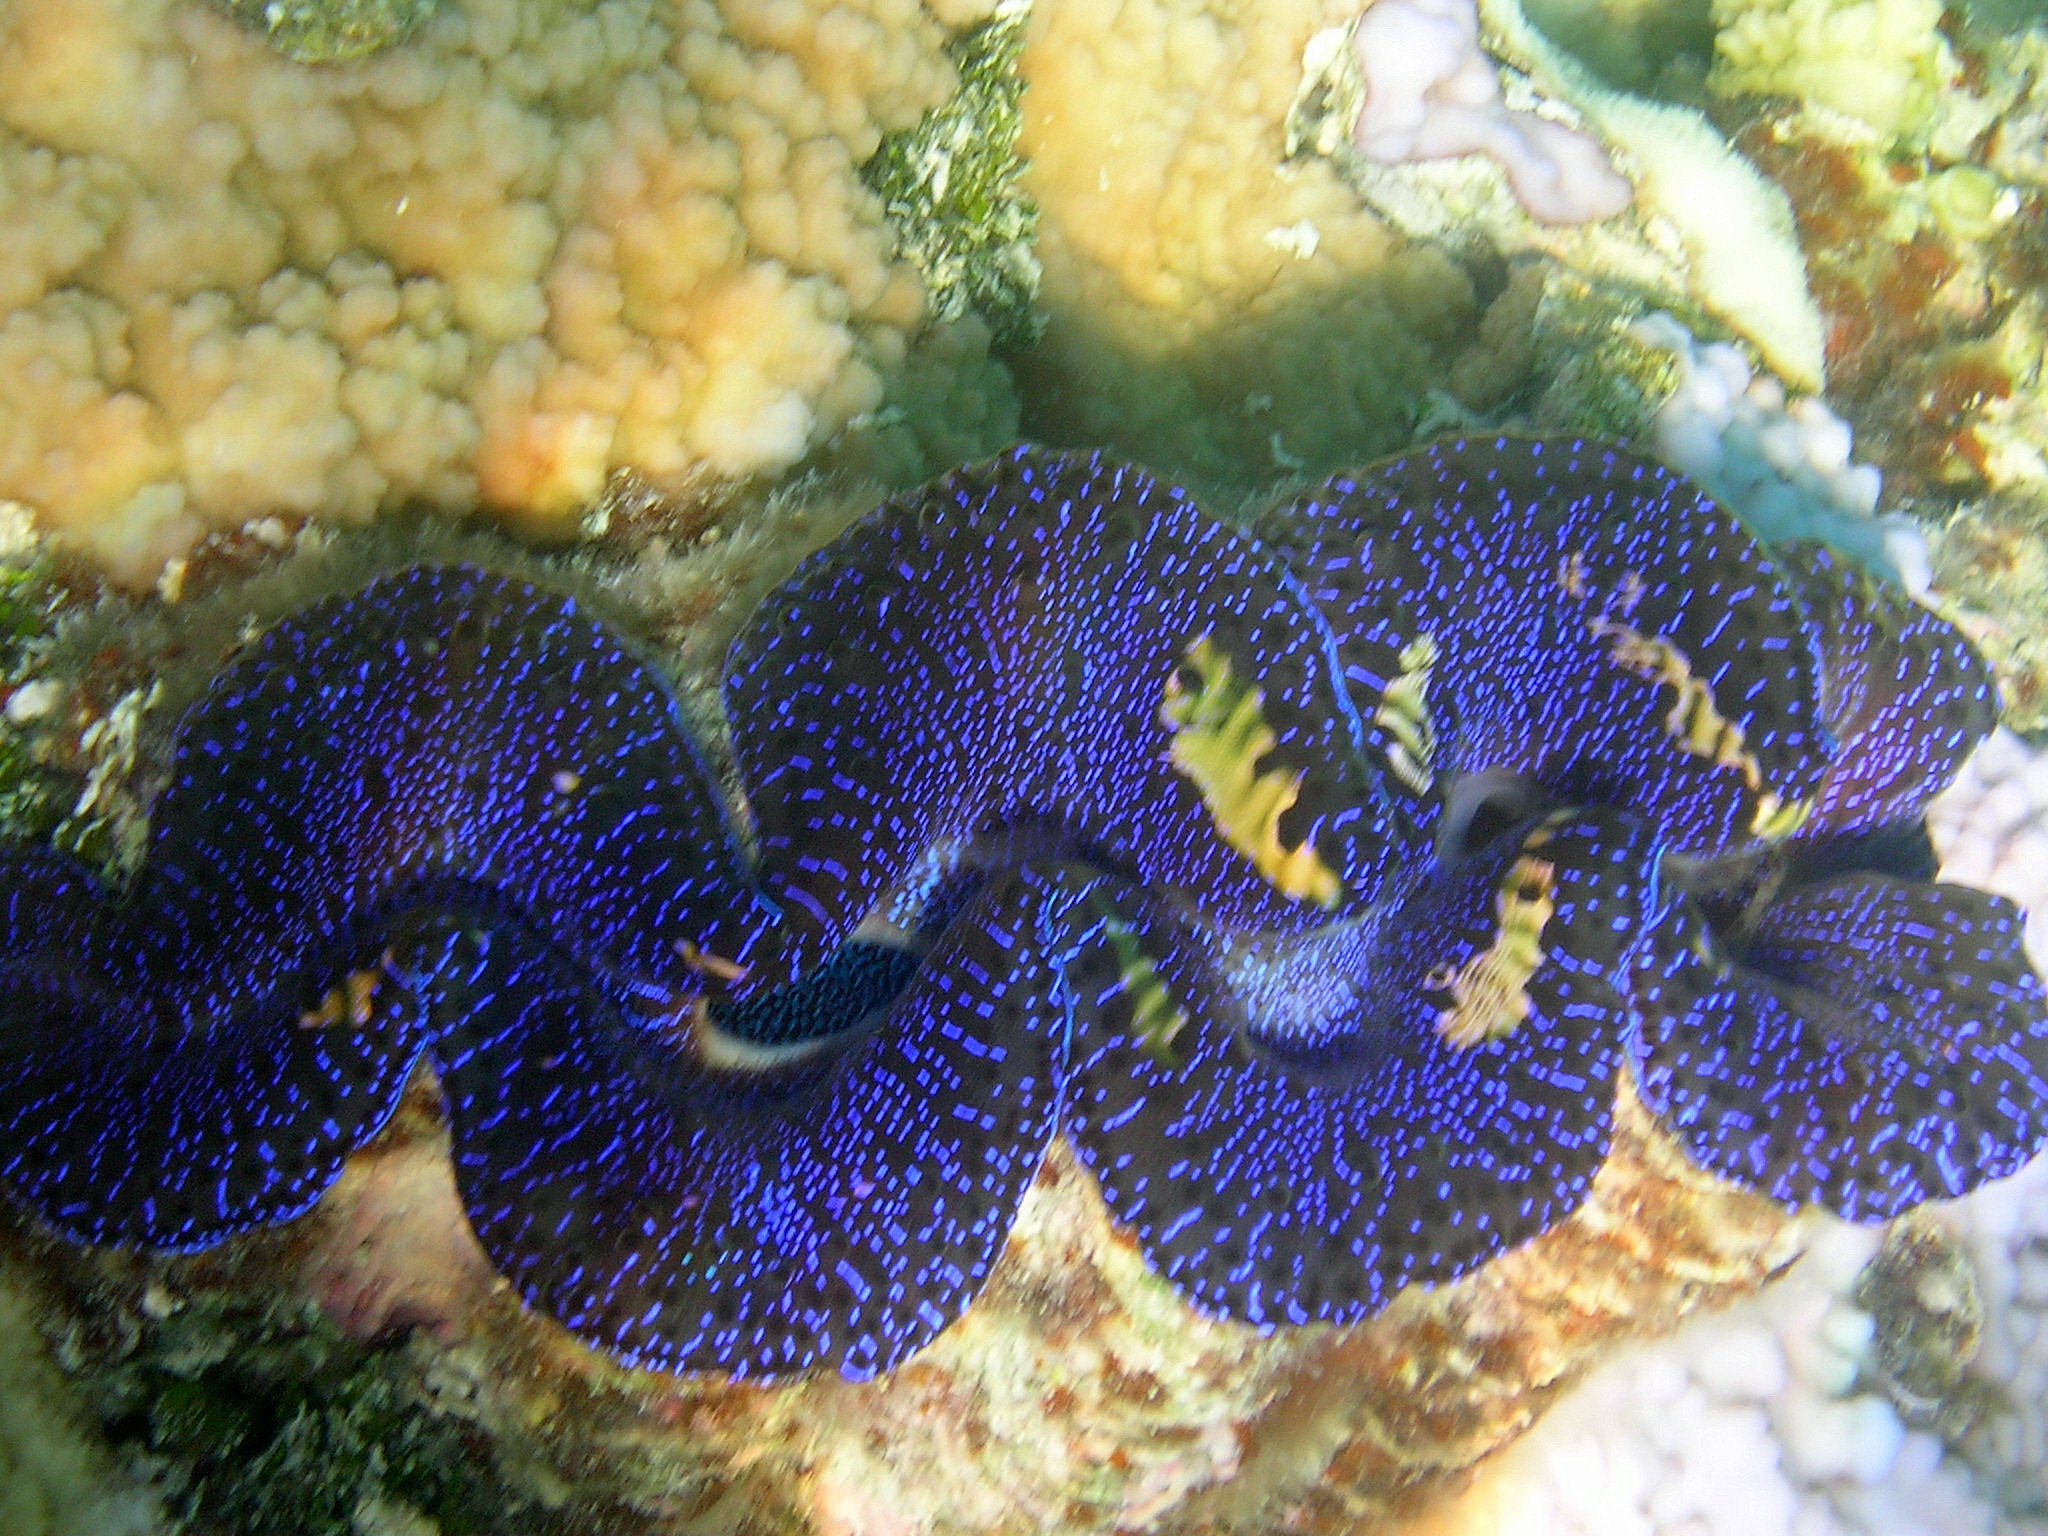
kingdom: Animalia
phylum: Mollusca
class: Bivalvia
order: Cardiida
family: Cardiidae
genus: Tridacna
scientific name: Tridacna maxima
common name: Small giant clam
